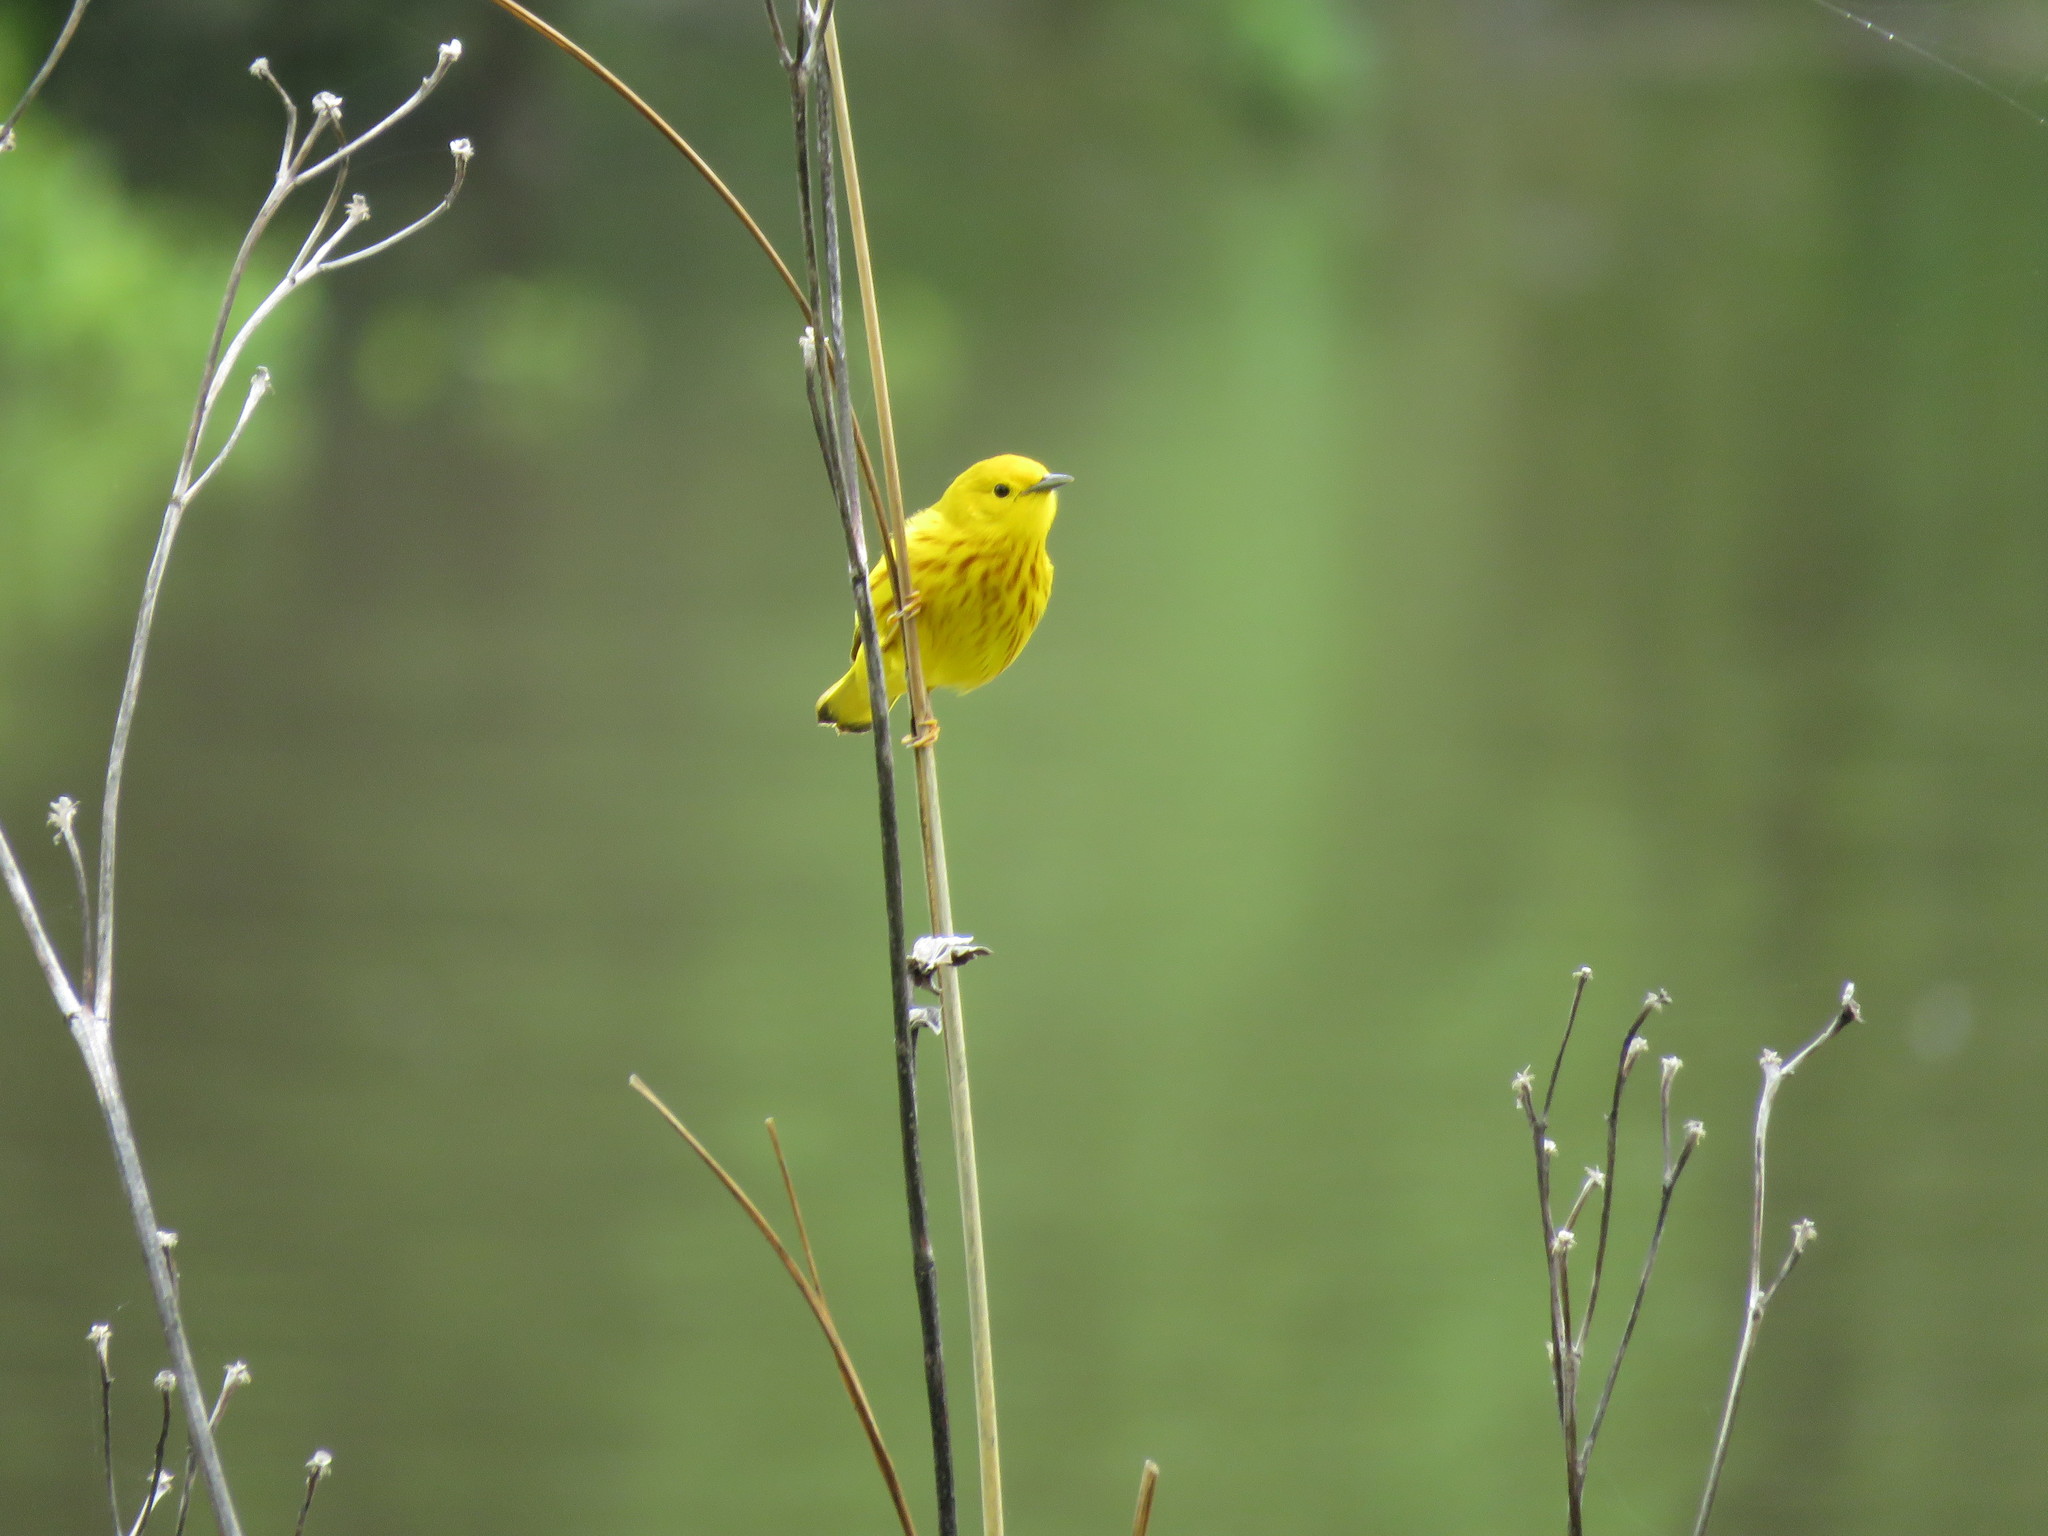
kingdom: Animalia
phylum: Chordata
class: Aves
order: Passeriformes
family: Parulidae
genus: Setophaga
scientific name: Setophaga petechia
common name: Yellow warbler
